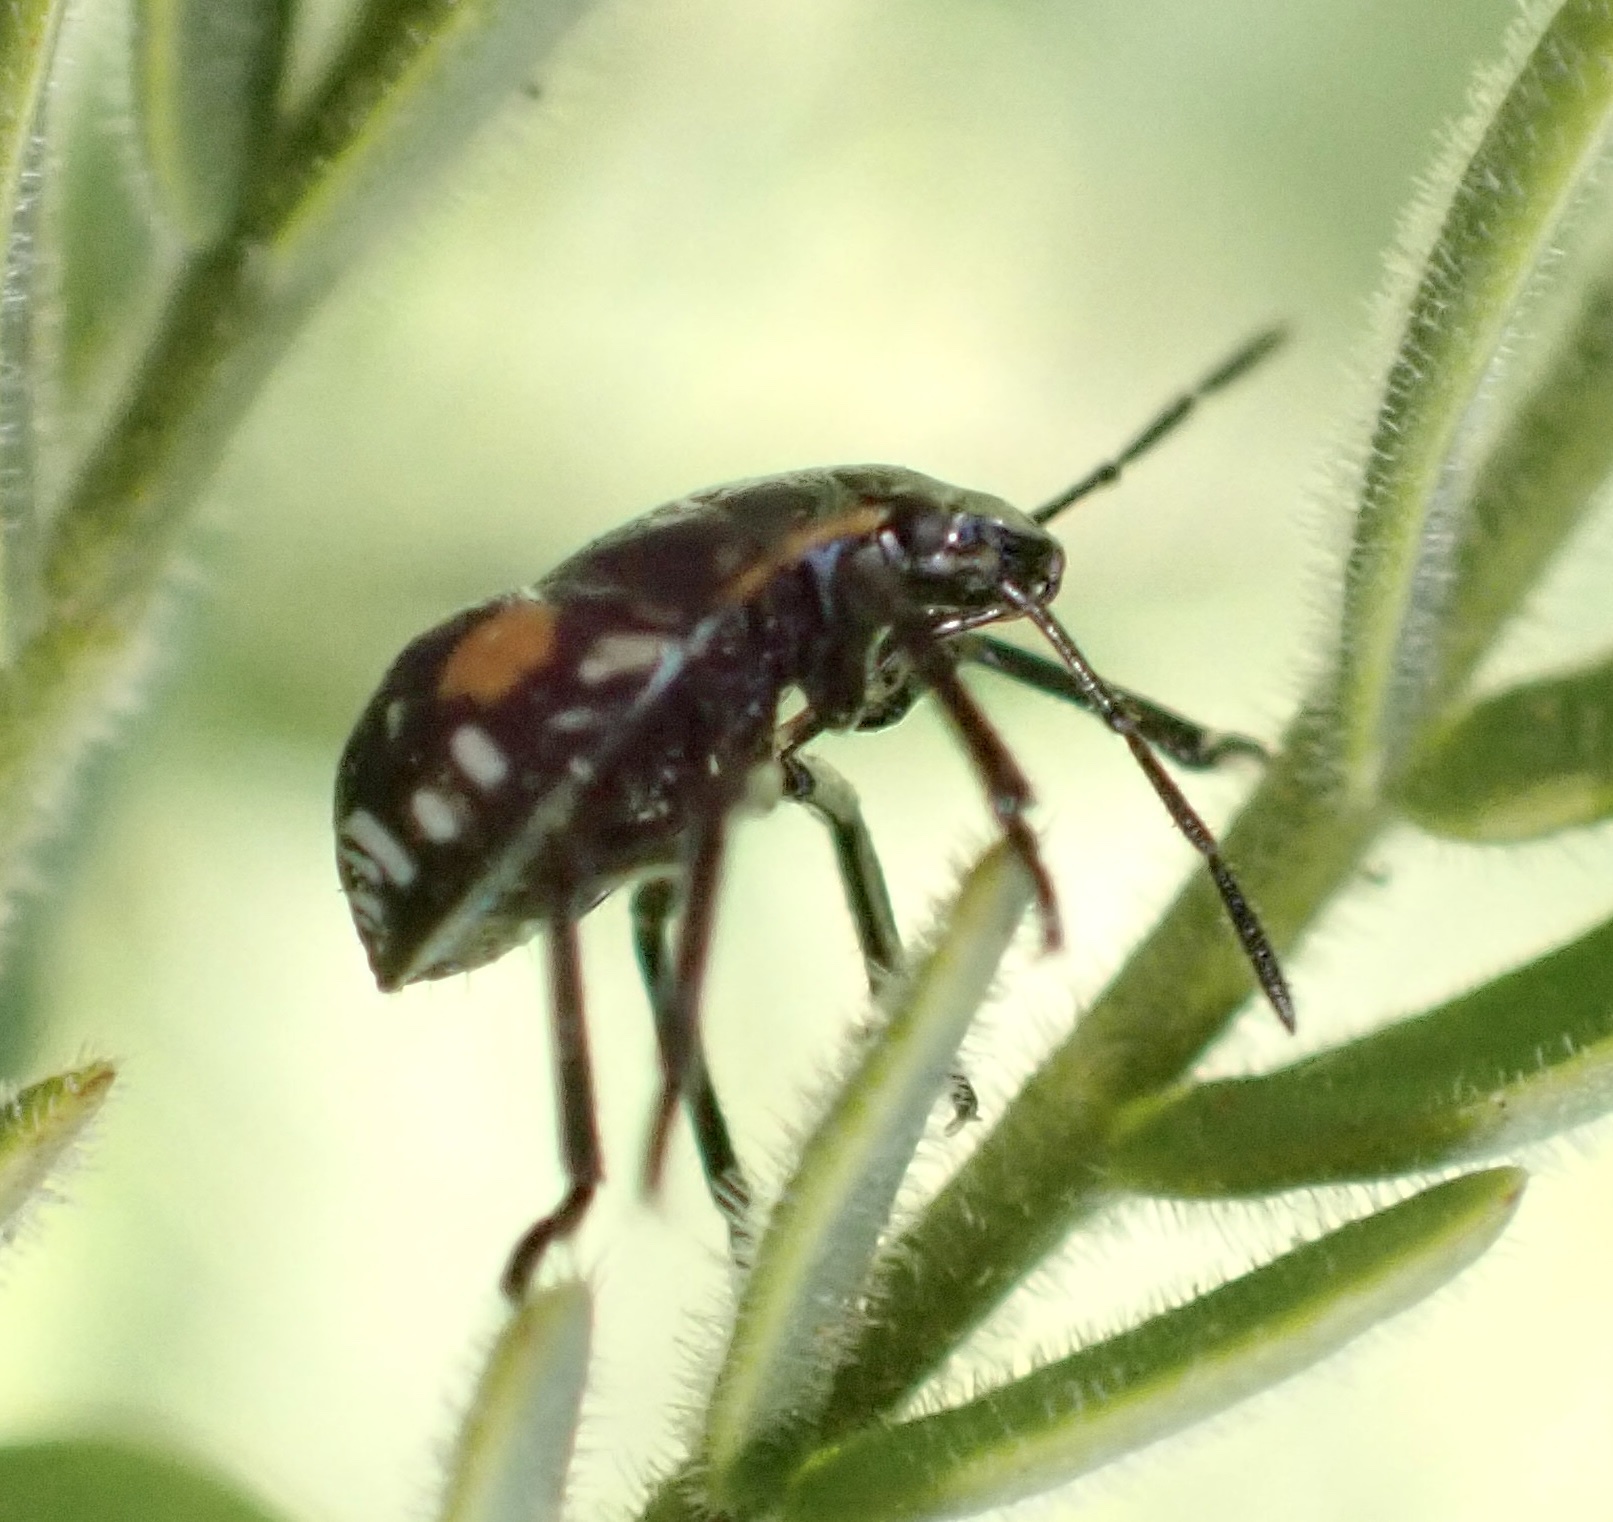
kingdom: Animalia
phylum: Arthropoda
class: Insecta
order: Hemiptera
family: Pentatomidae
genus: Chinavia
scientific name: Chinavia
